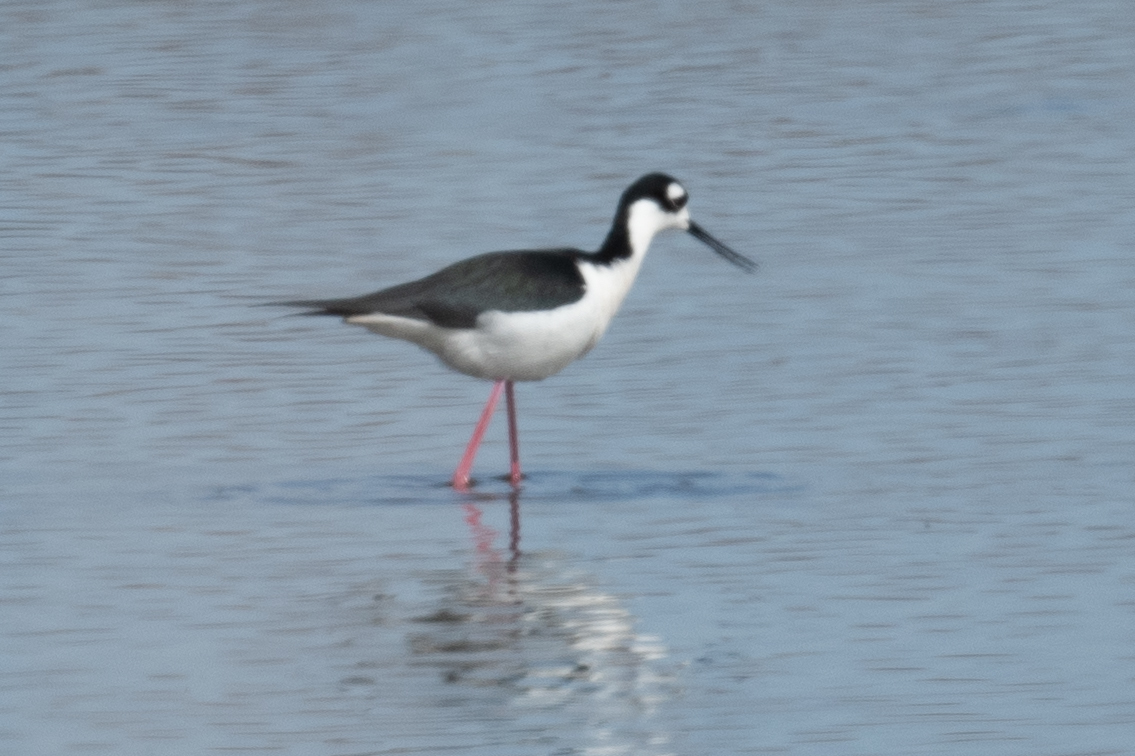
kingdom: Animalia
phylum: Chordata
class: Aves
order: Charadriiformes
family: Recurvirostridae
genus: Himantopus
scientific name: Himantopus mexicanus
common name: Black-necked stilt
